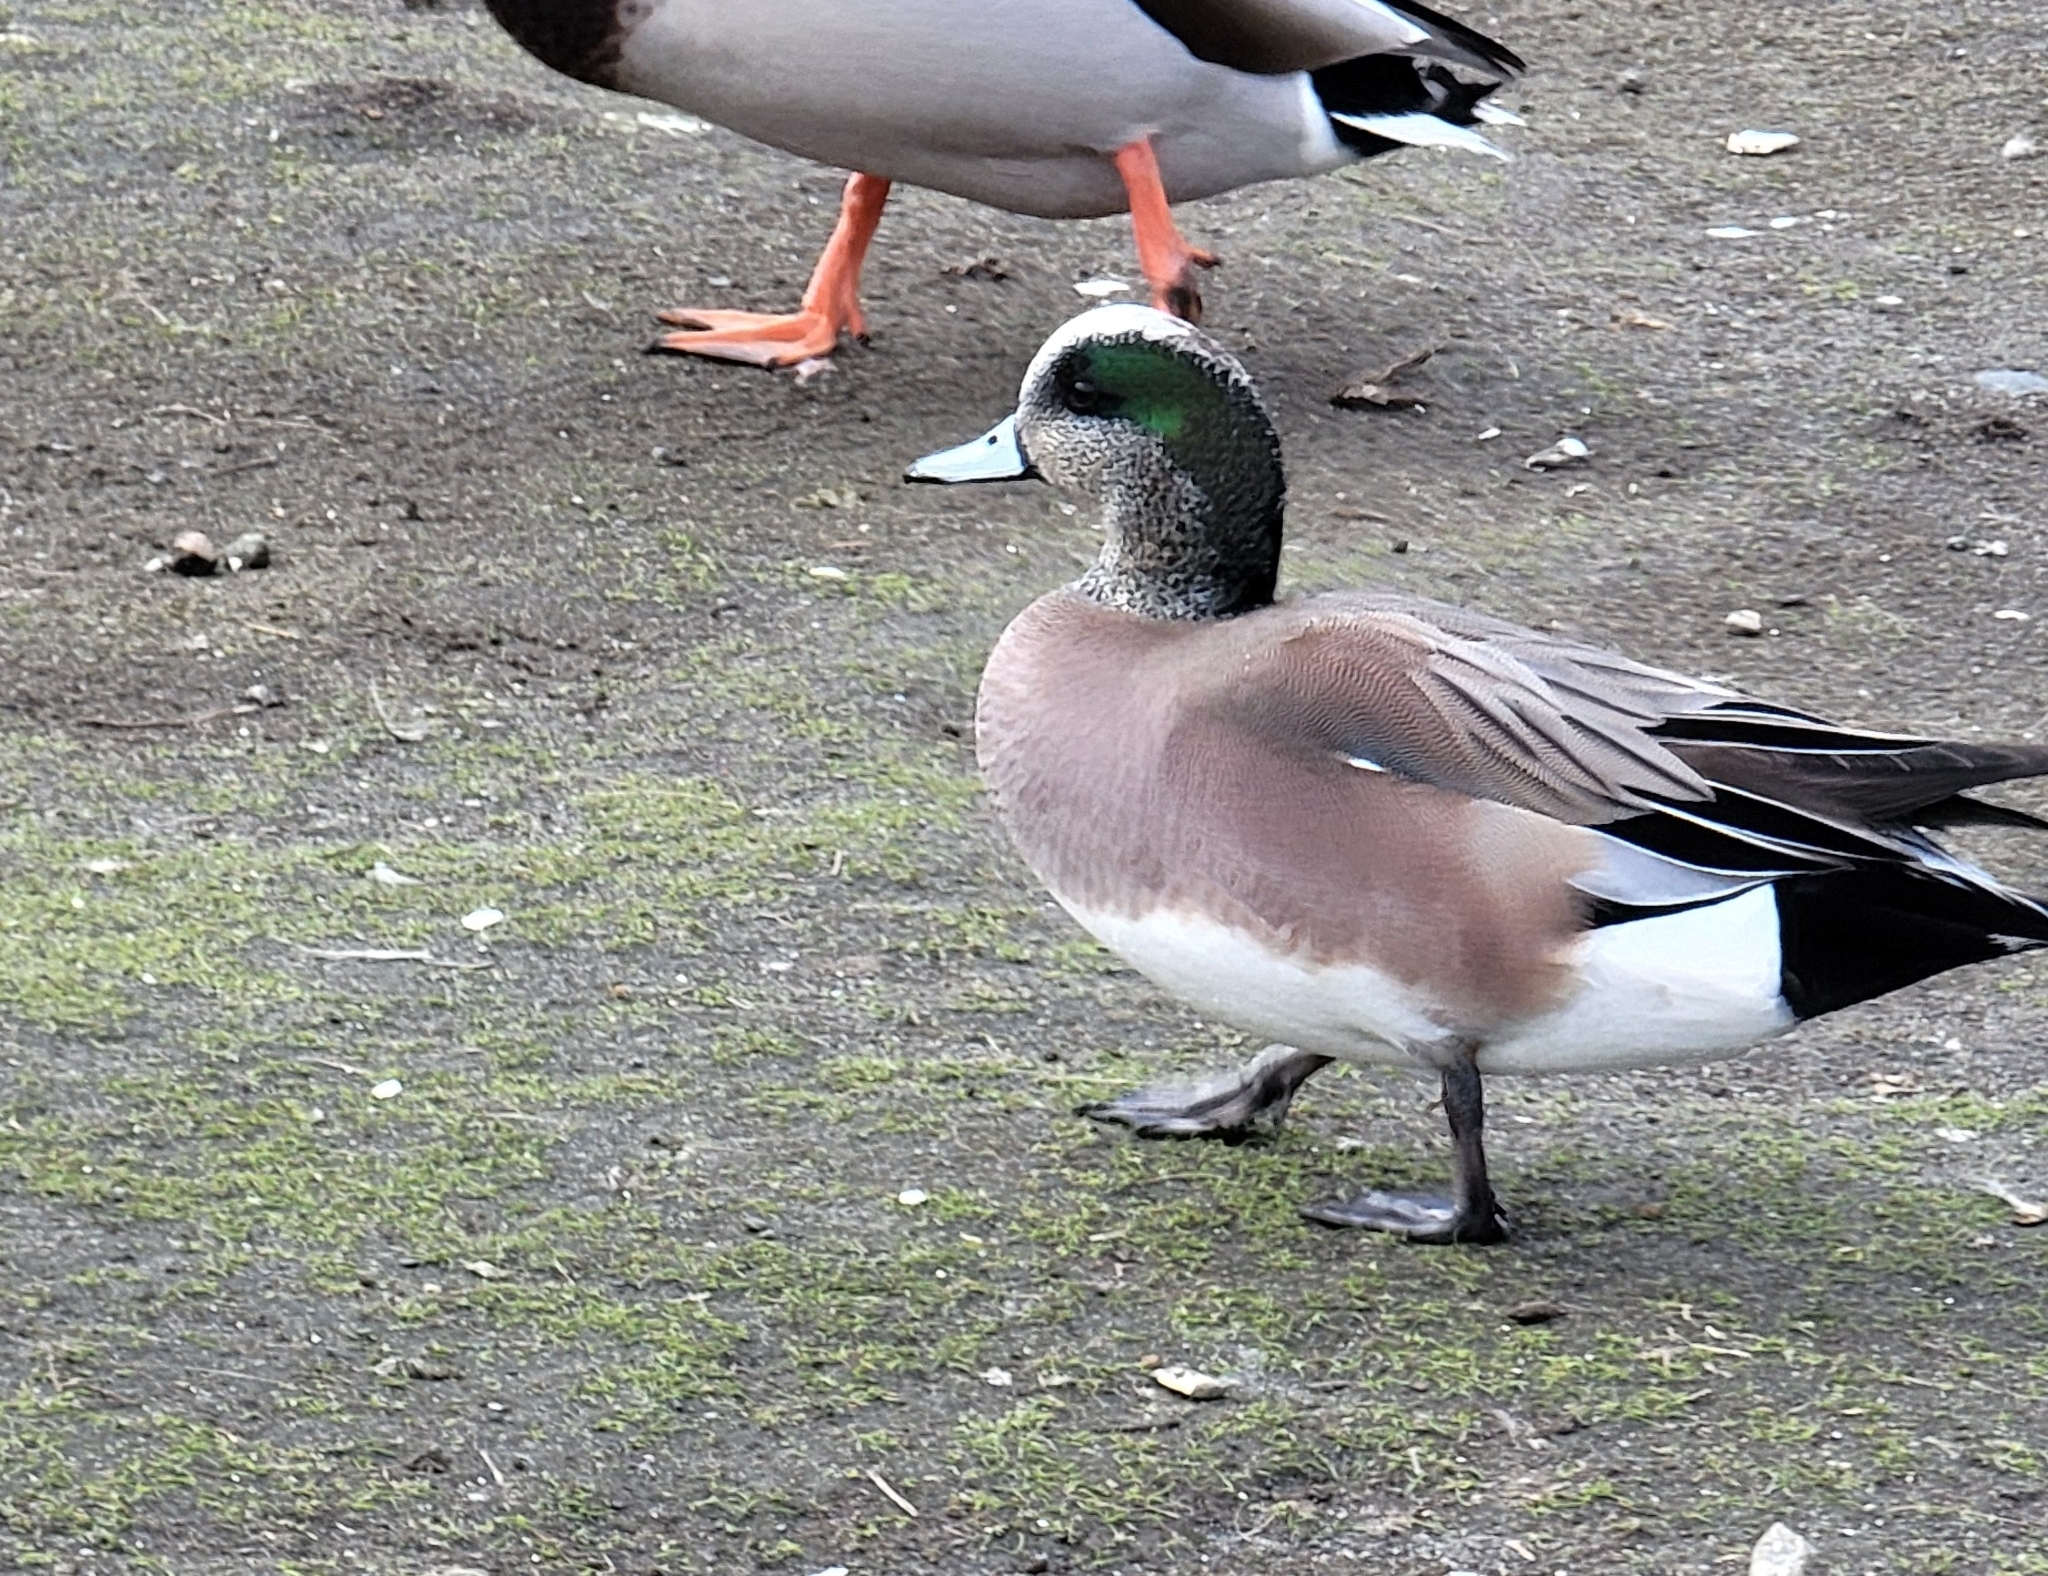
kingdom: Animalia
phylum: Chordata
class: Aves
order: Anseriformes
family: Anatidae
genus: Mareca
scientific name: Mareca americana
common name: American wigeon
